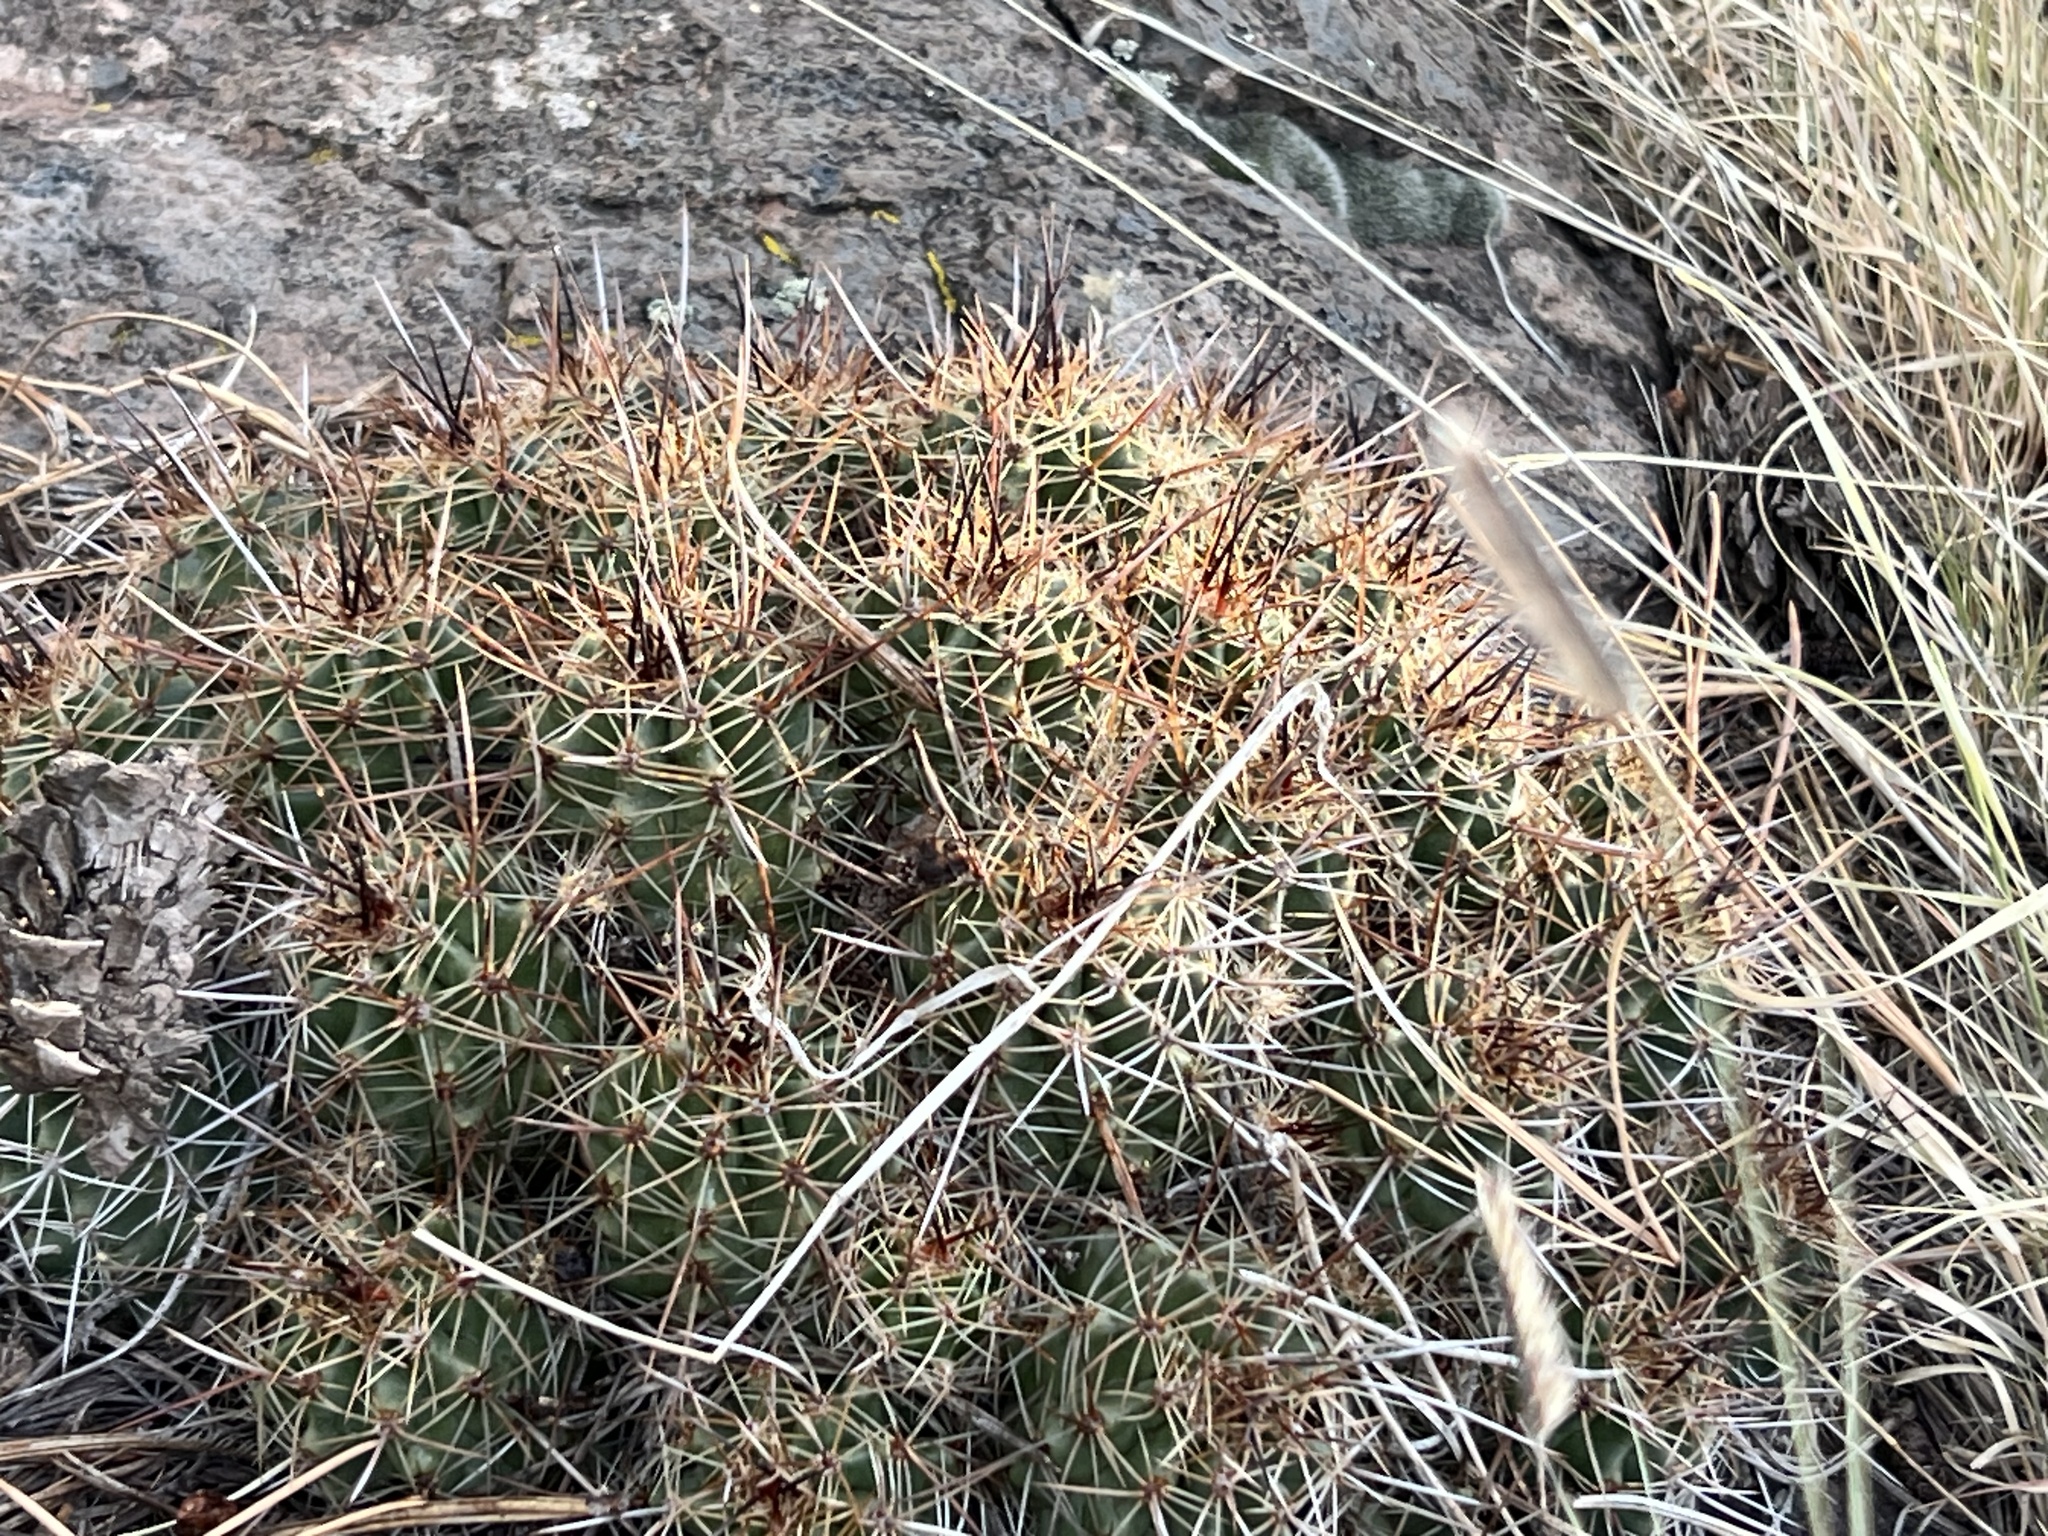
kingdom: Plantae
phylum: Tracheophyta
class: Magnoliopsida
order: Caryophyllales
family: Cactaceae
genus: Echinocereus
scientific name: Echinocereus bakeri
